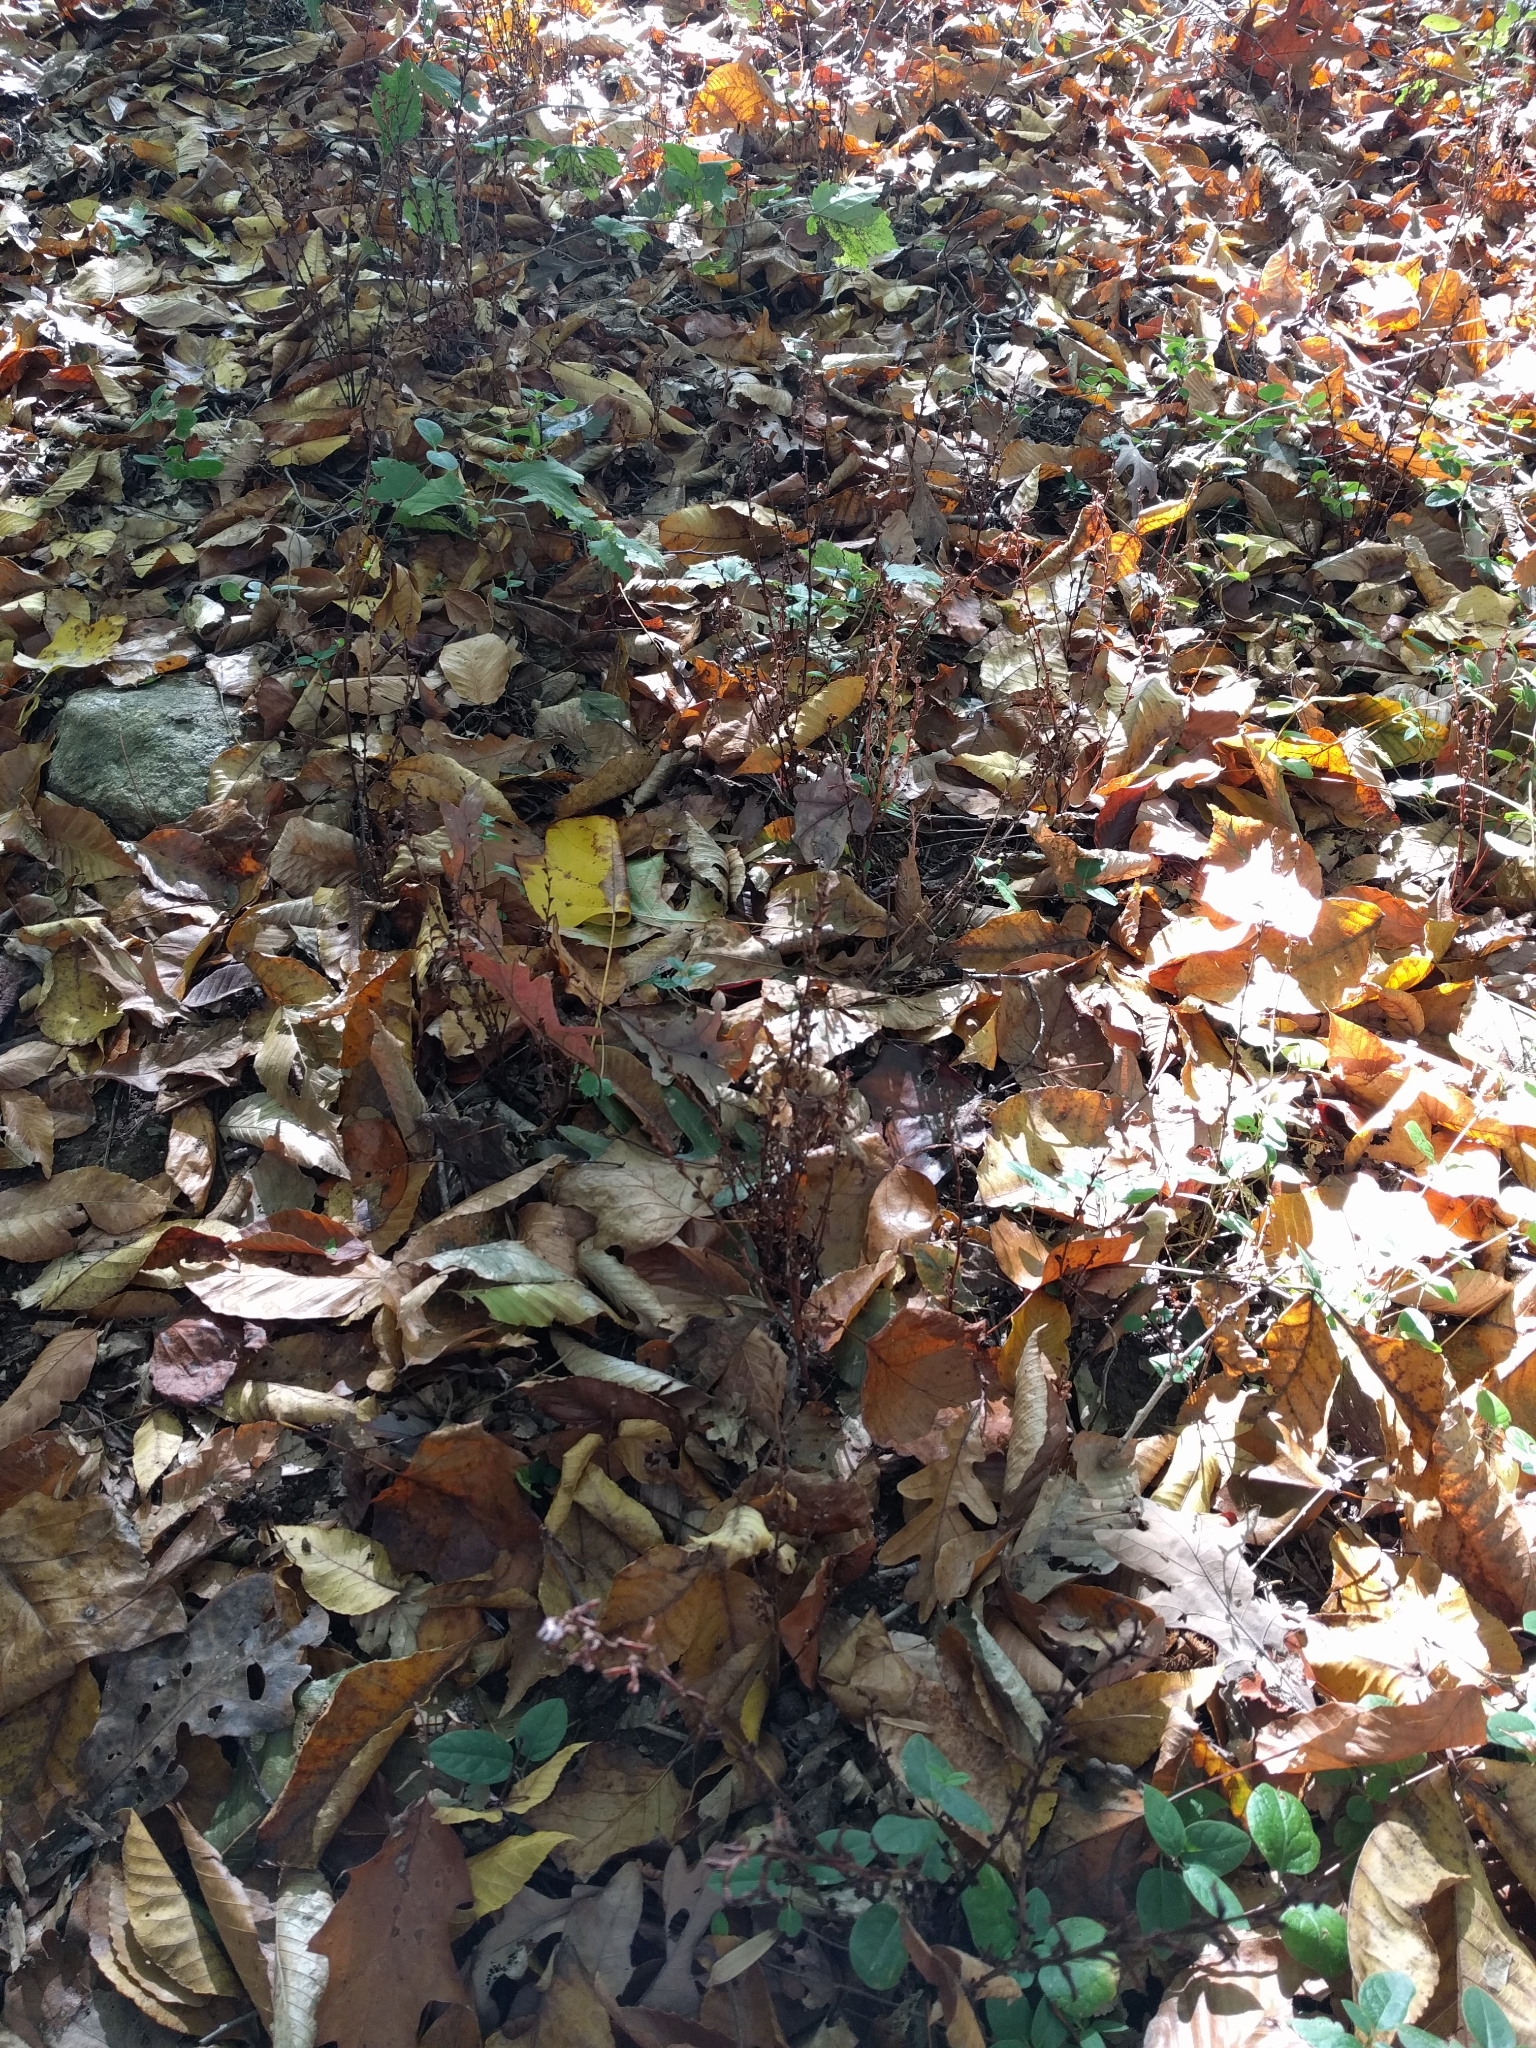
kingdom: Plantae
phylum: Tracheophyta
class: Magnoliopsida
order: Lamiales
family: Orobanchaceae
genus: Epifagus
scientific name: Epifagus virginiana
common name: Beechdrops
